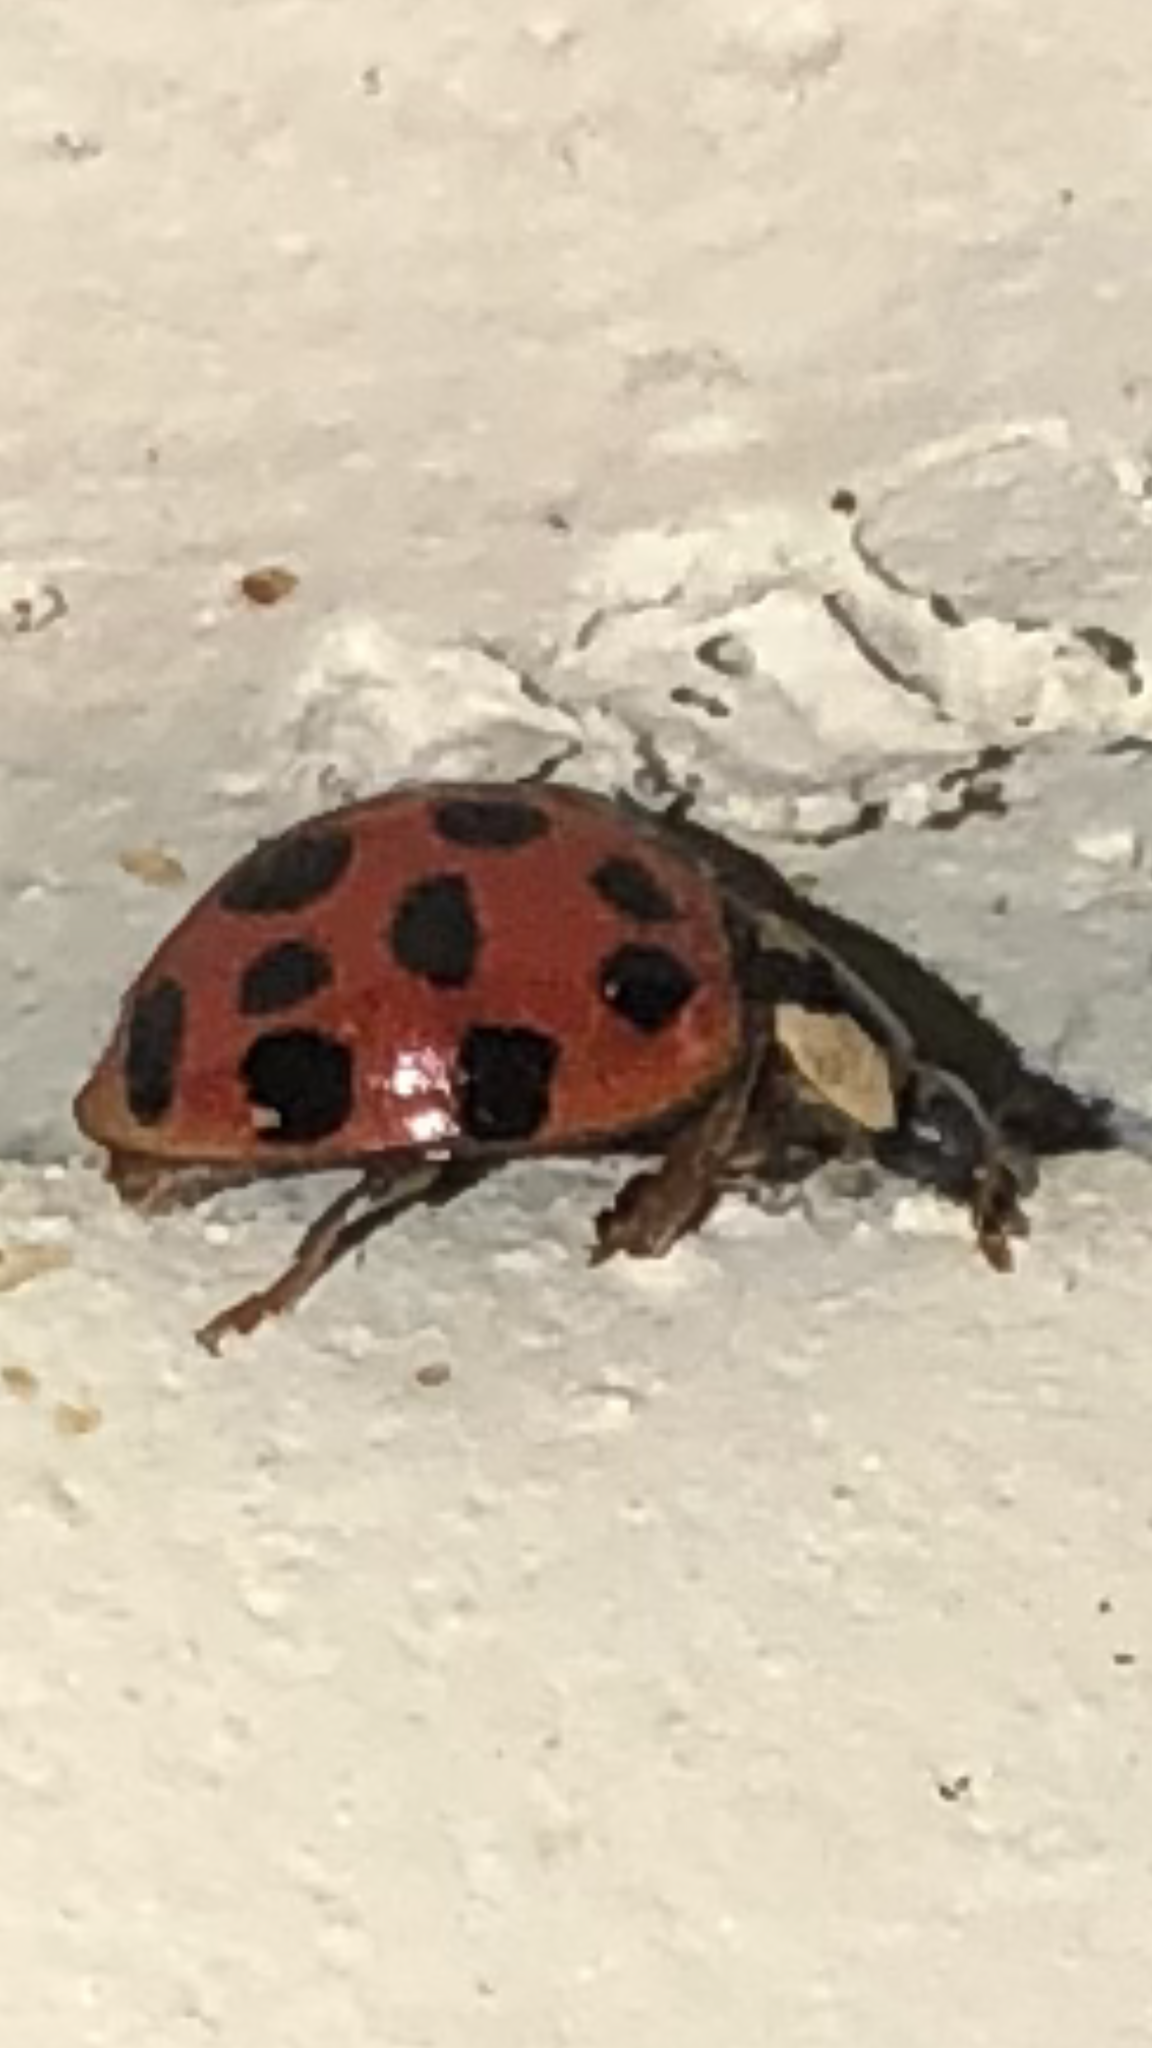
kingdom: Animalia
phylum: Arthropoda
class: Insecta
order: Coleoptera
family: Coccinellidae
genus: Harmonia
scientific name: Harmonia axyridis
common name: Harlequin ladybird
